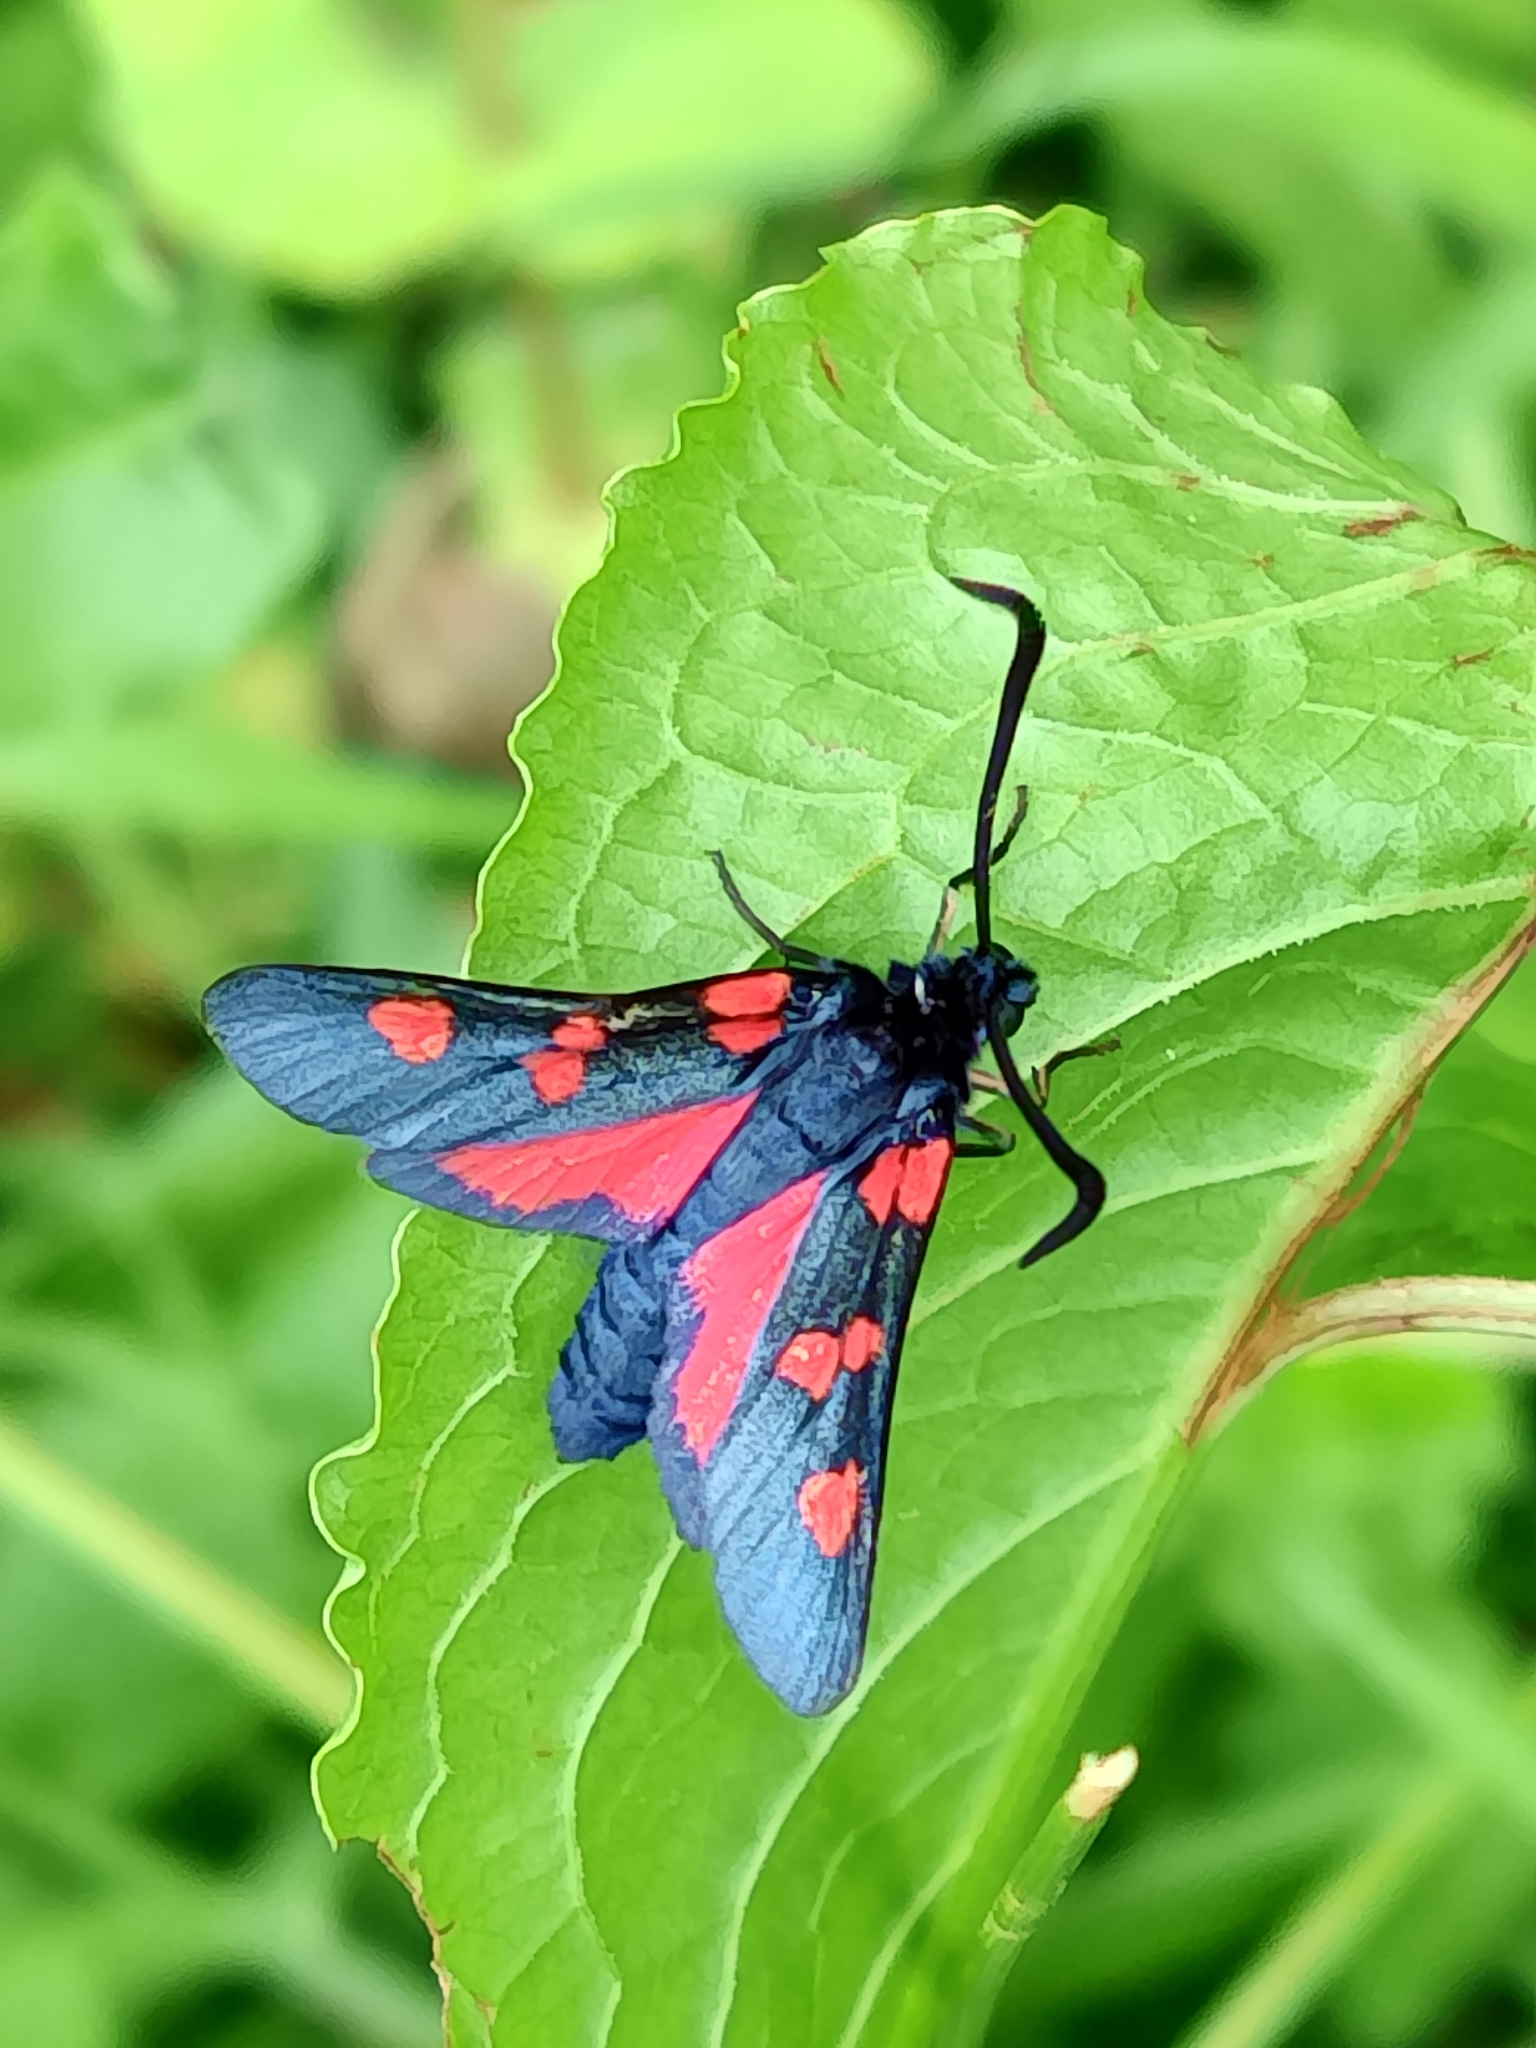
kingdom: Animalia
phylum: Arthropoda
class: Insecta
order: Lepidoptera
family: Zygaenidae
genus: Zygaena
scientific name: Zygaena trifolii
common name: Five-spot burnet
